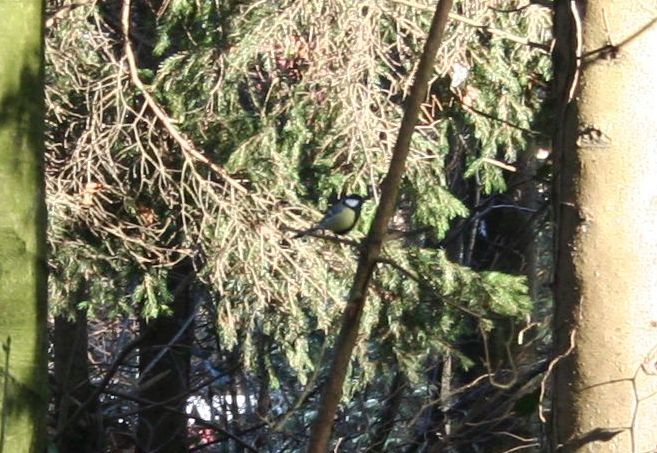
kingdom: Animalia
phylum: Chordata
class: Aves
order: Passeriformes
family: Paridae
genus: Parus
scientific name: Parus major
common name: Great tit
